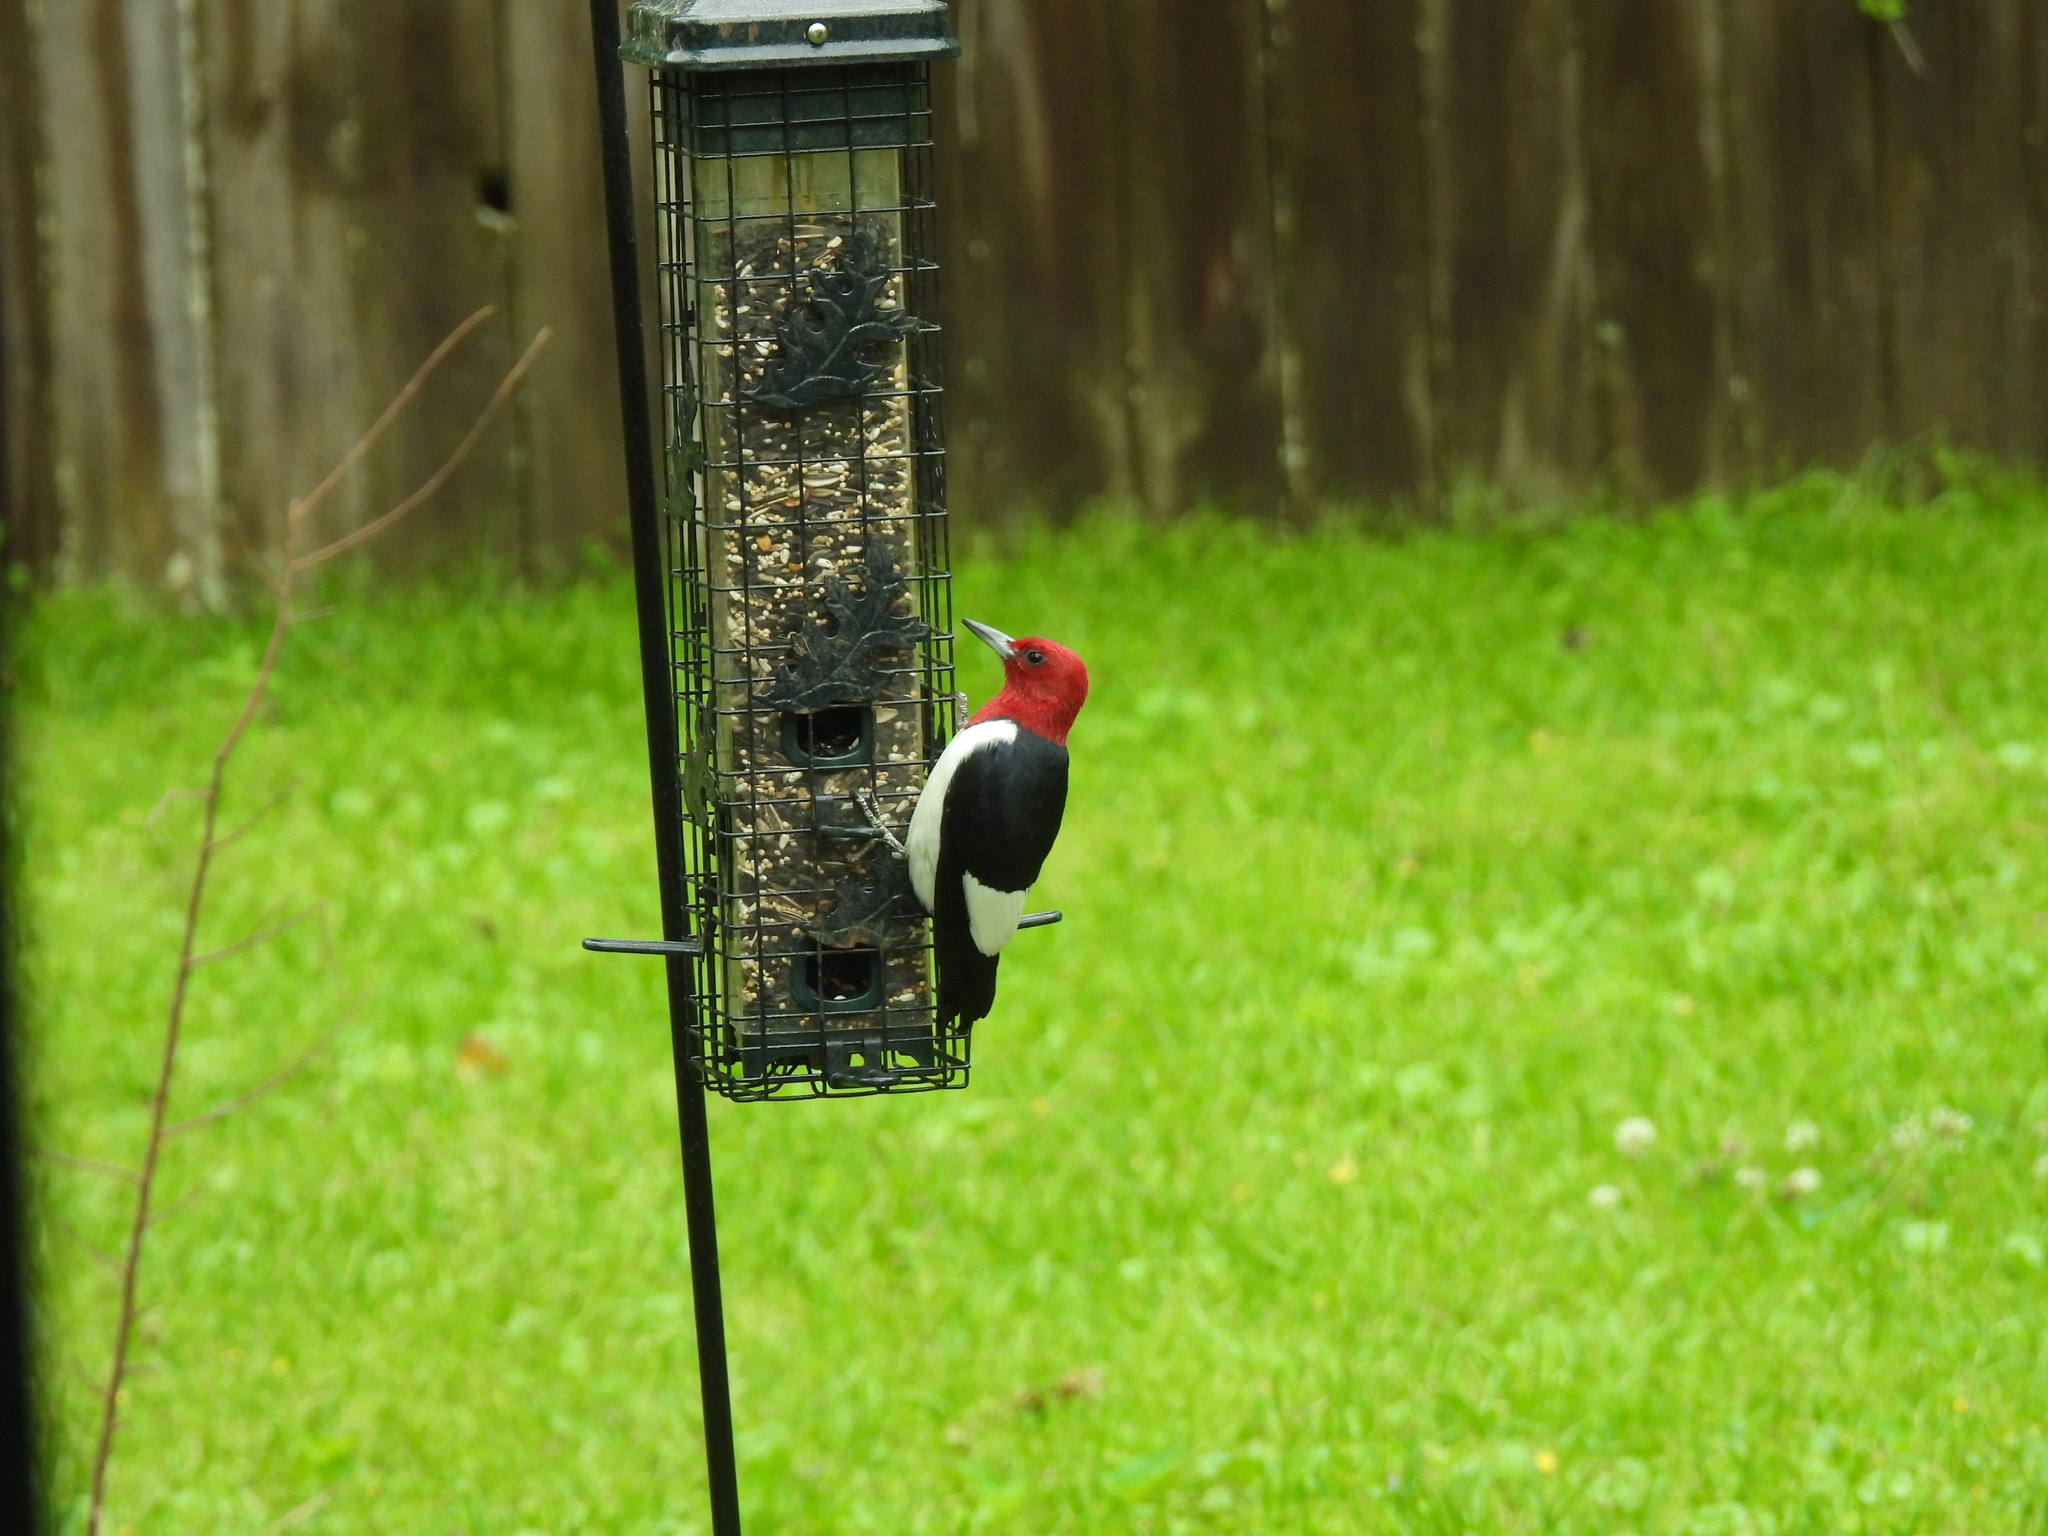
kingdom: Animalia
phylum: Chordata
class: Aves
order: Piciformes
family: Picidae
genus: Melanerpes
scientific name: Melanerpes erythrocephalus
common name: Red-headed woodpecker
